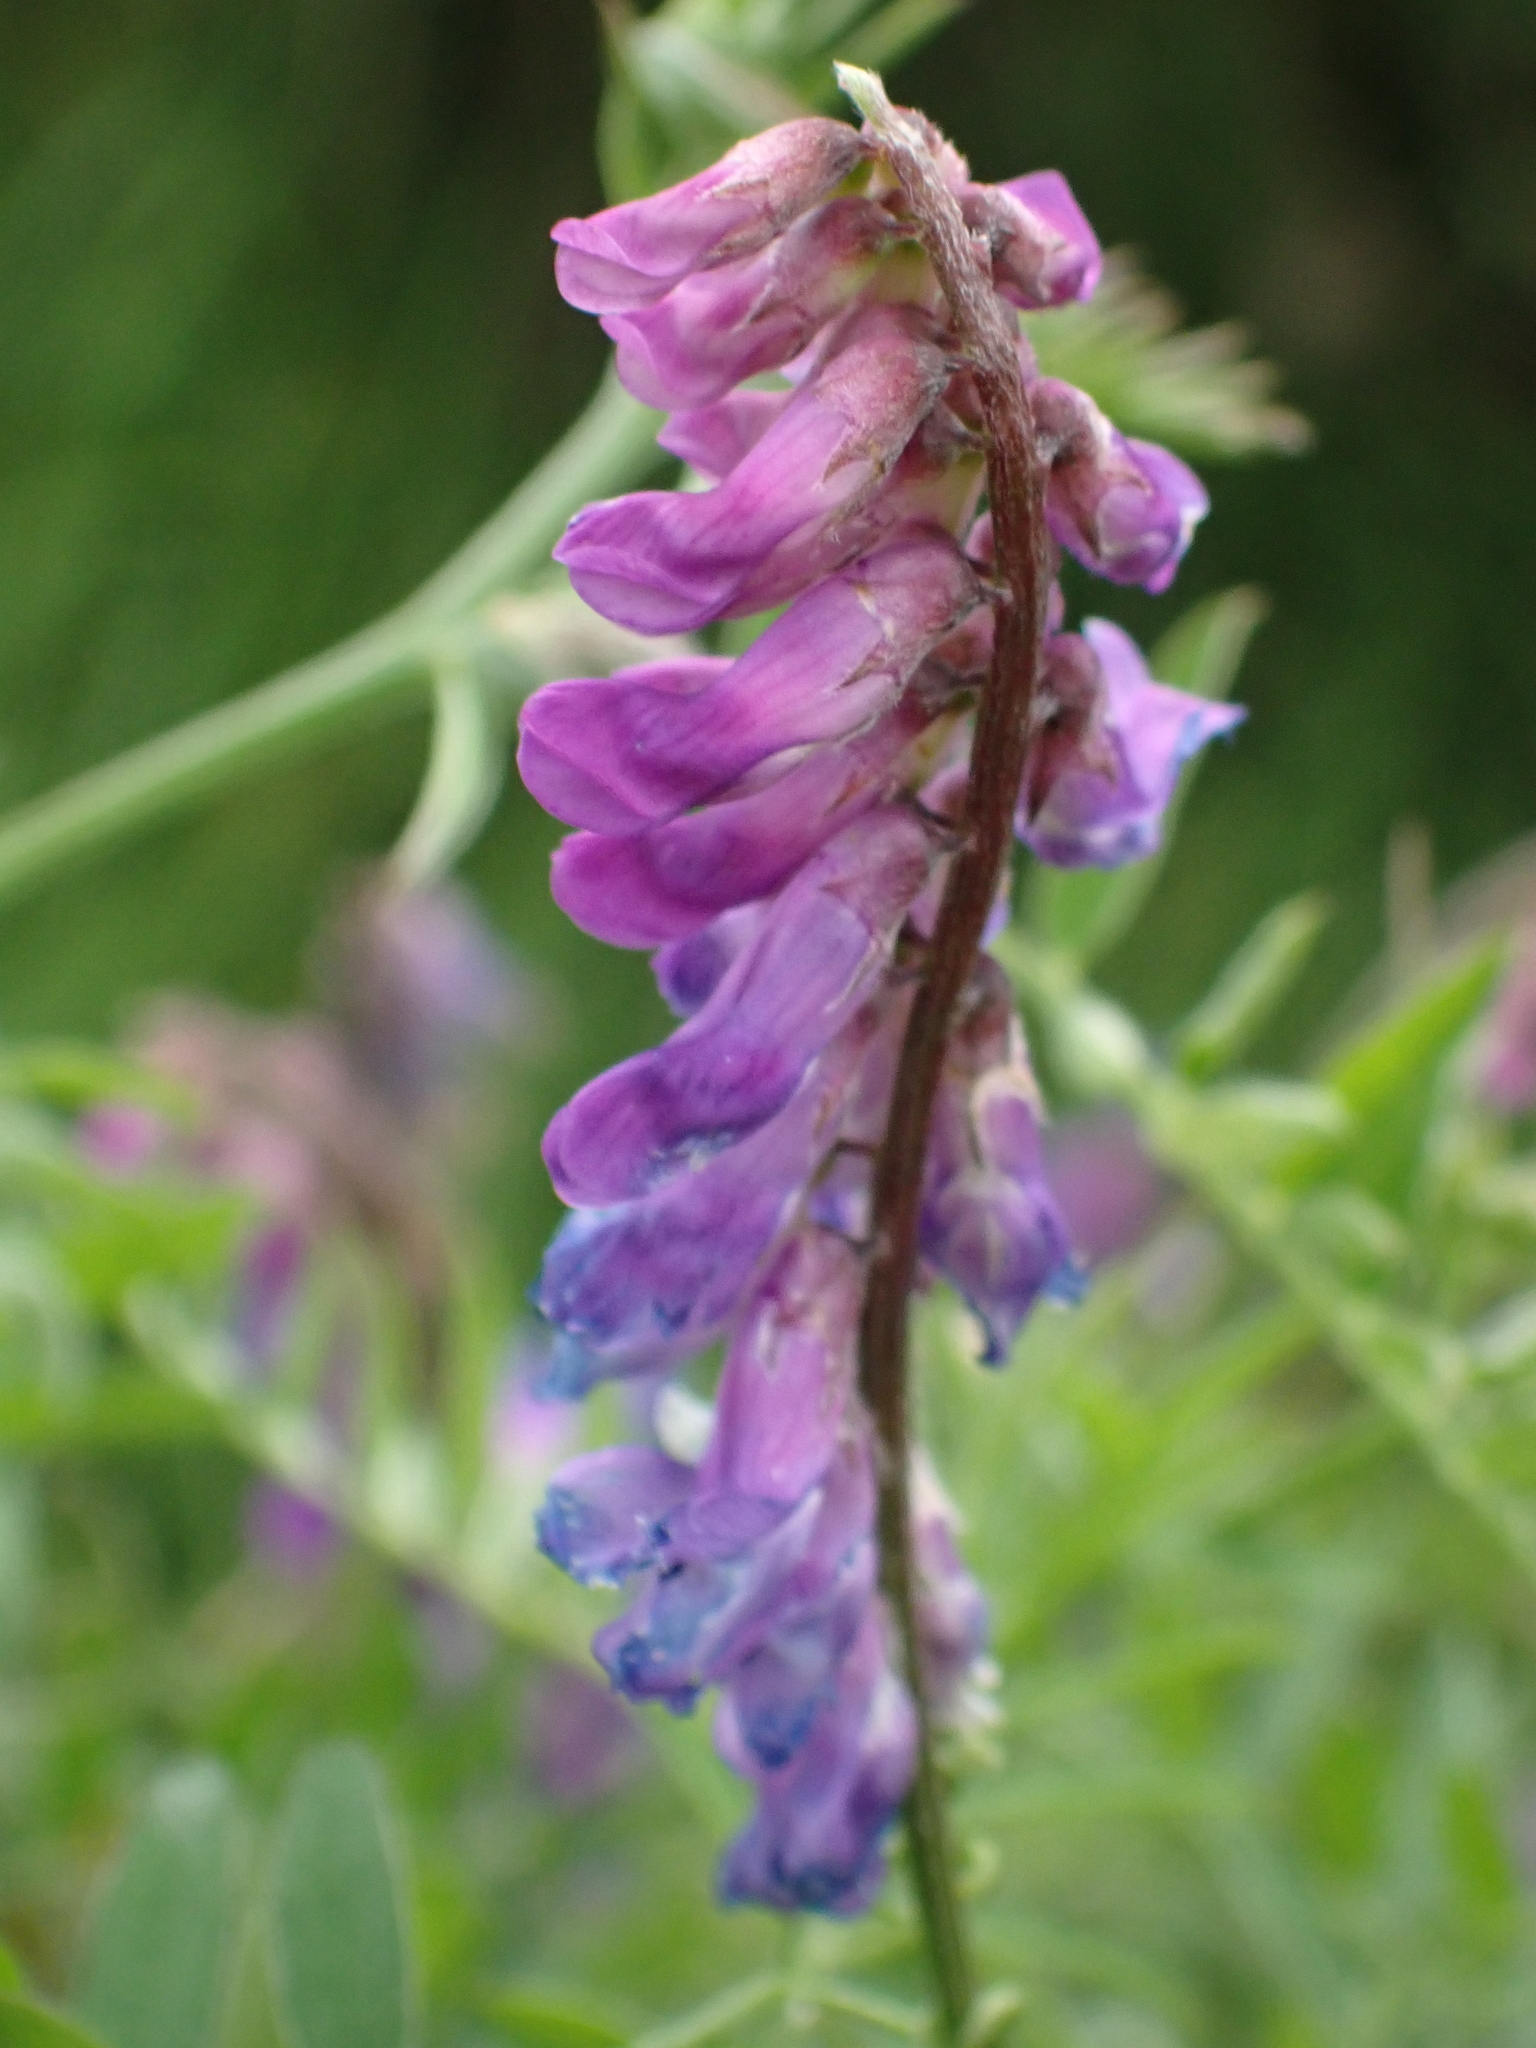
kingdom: Plantae
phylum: Tracheophyta
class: Magnoliopsida
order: Fabales
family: Fabaceae
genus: Vicia
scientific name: Vicia cracca
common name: Bird vetch
